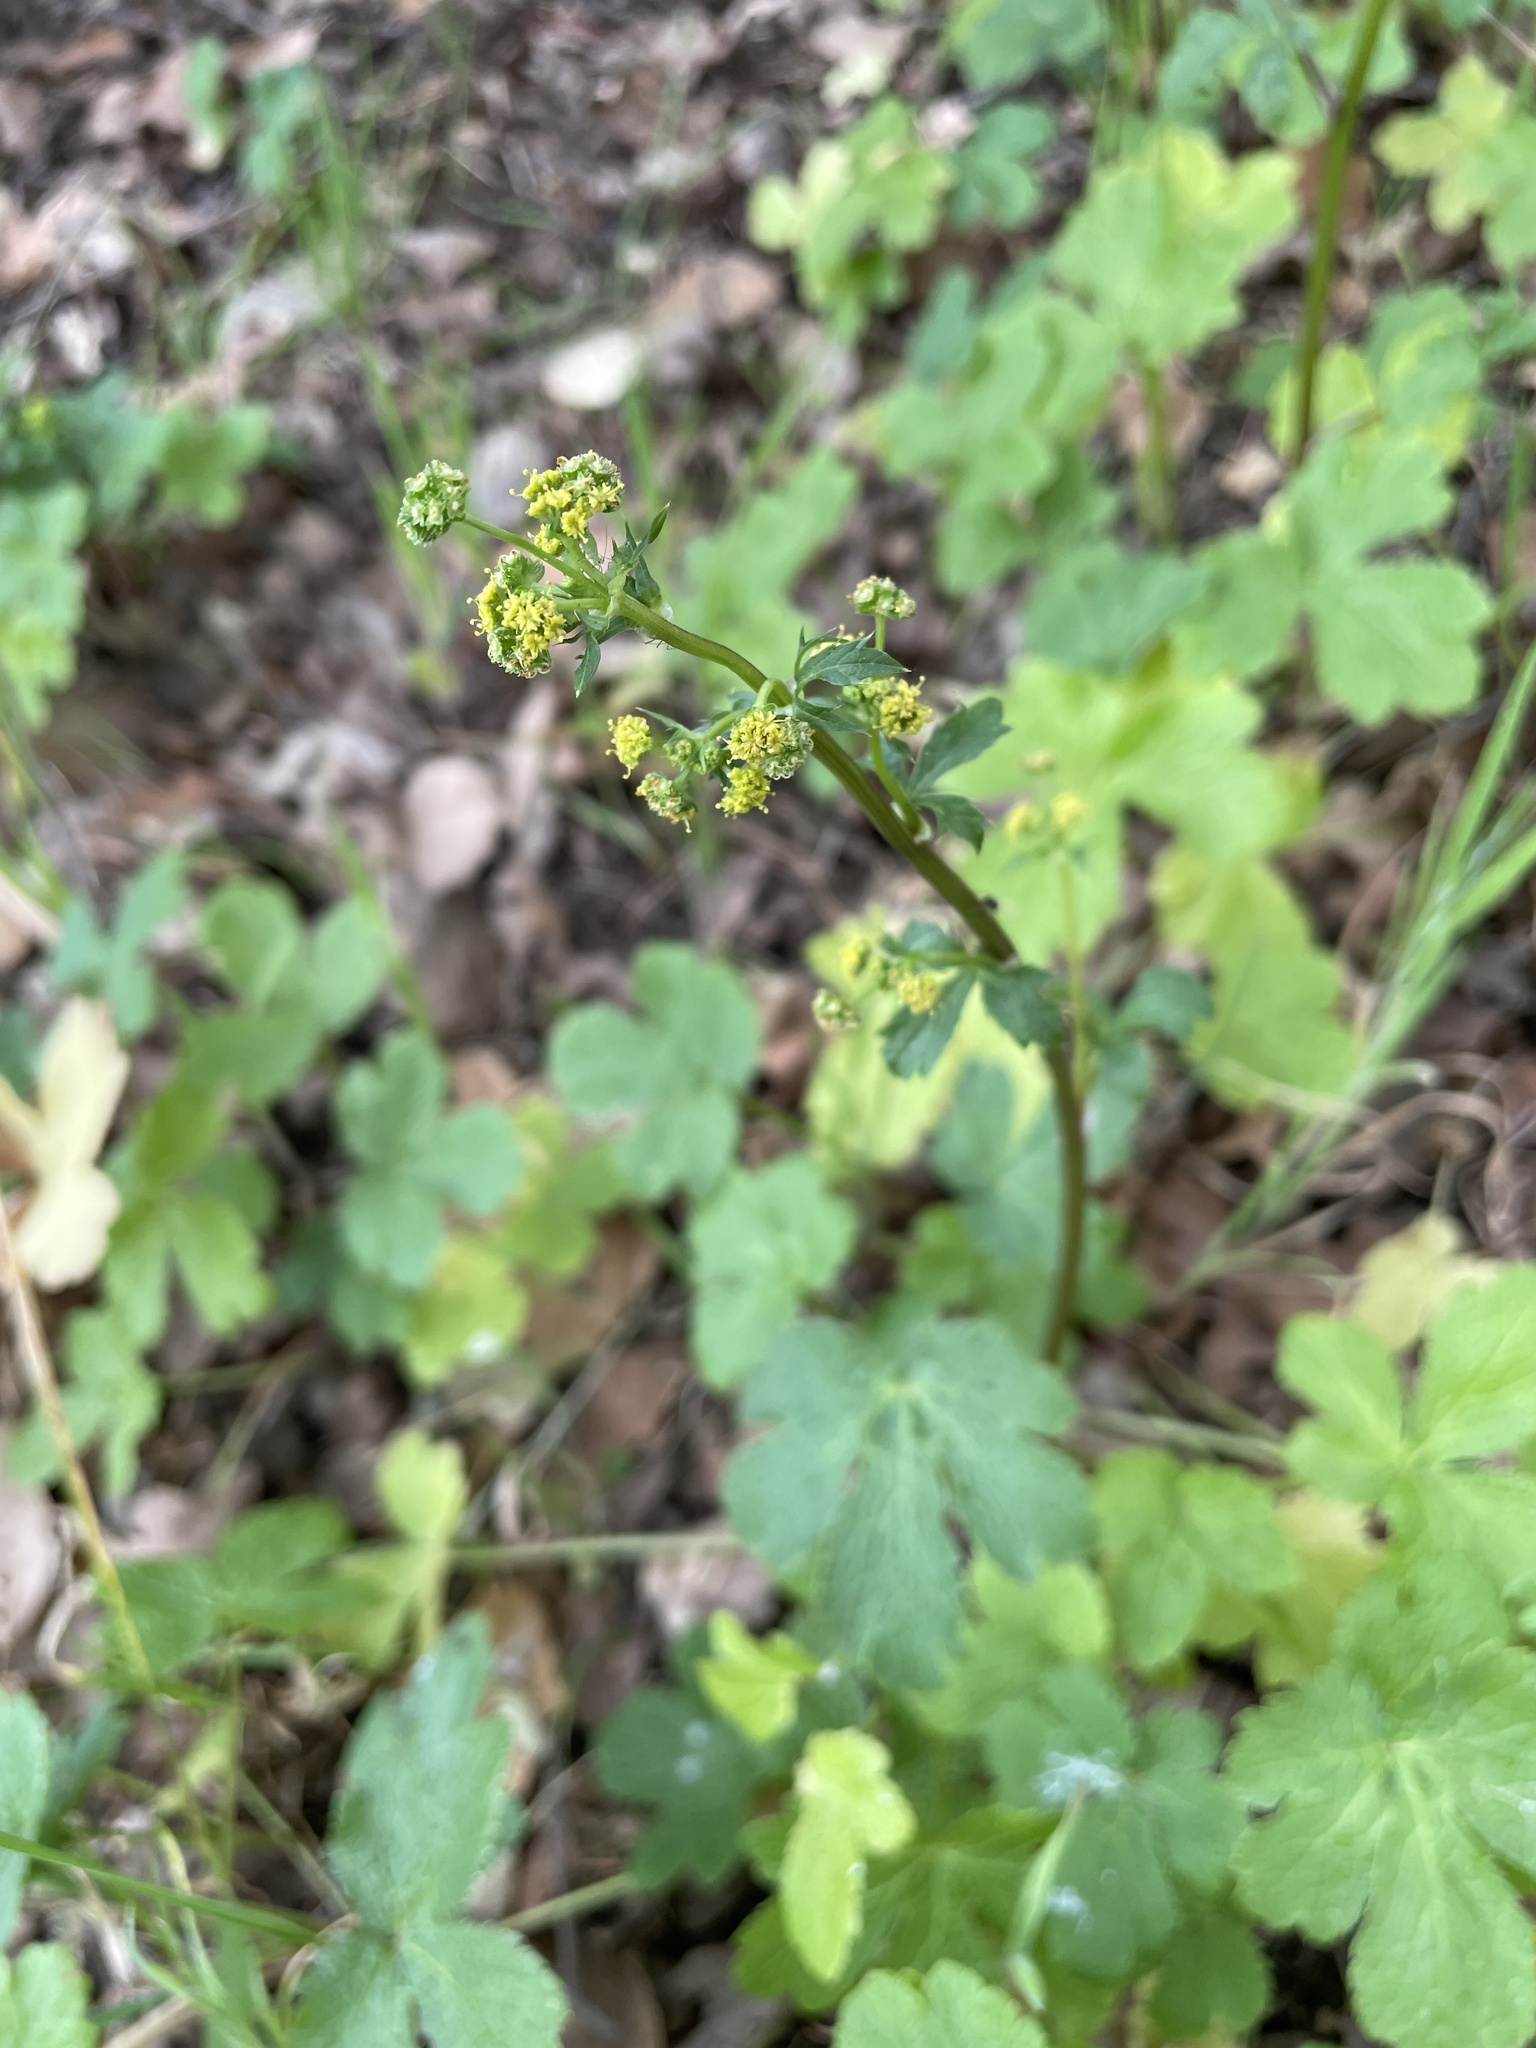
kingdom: Plantae
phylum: Tracheophyta
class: Magnoliopsida
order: Apiales
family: Apiaceae
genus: Sanicula
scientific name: Sanicula crassicaulis
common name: Western snakeroot
